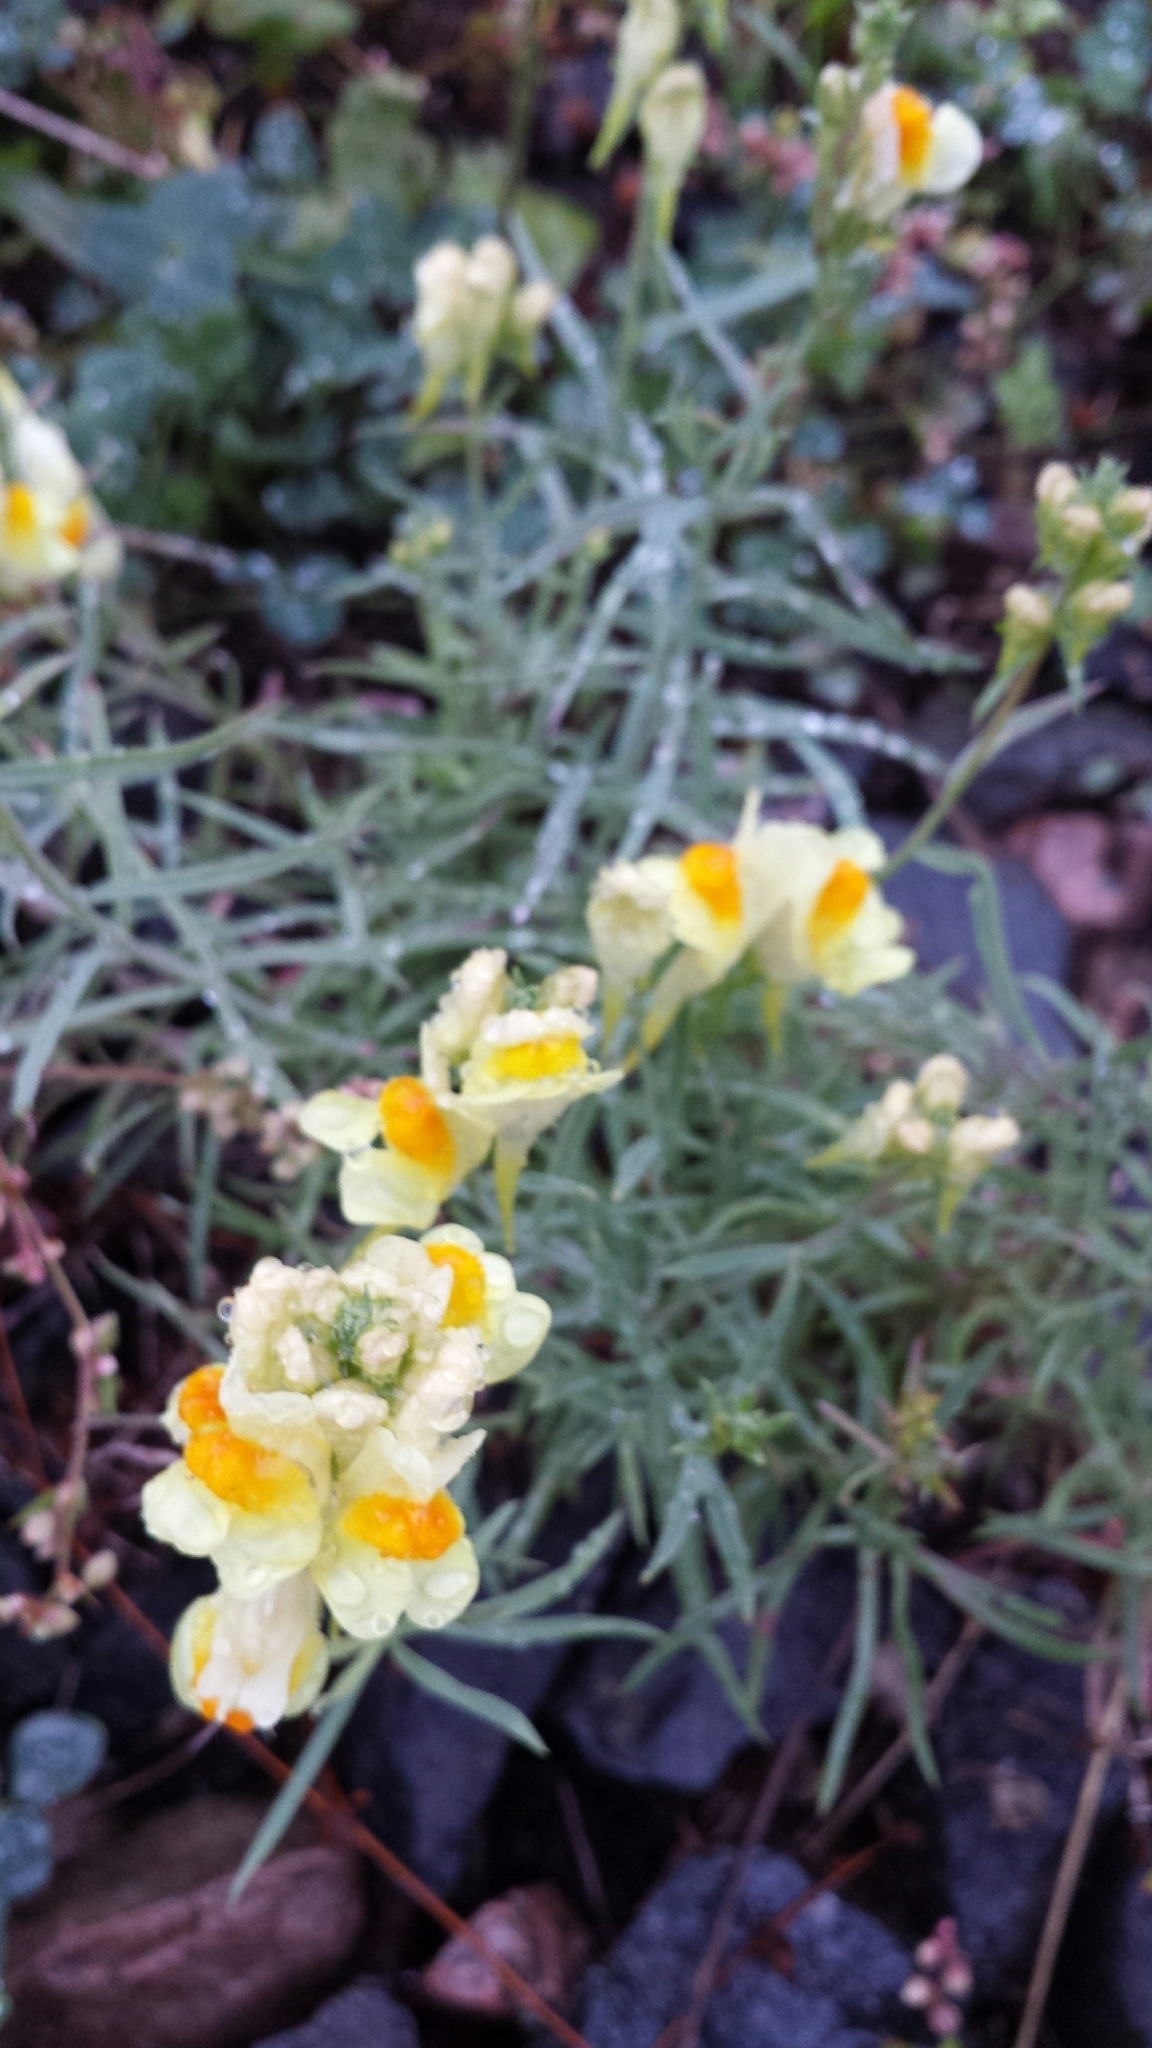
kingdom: Plantae
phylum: Tracheophyta
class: Magnoliopsida
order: Lamiales
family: Plantaginaceae
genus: Linaria
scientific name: Linaria vulgaris
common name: Butter and eggs
